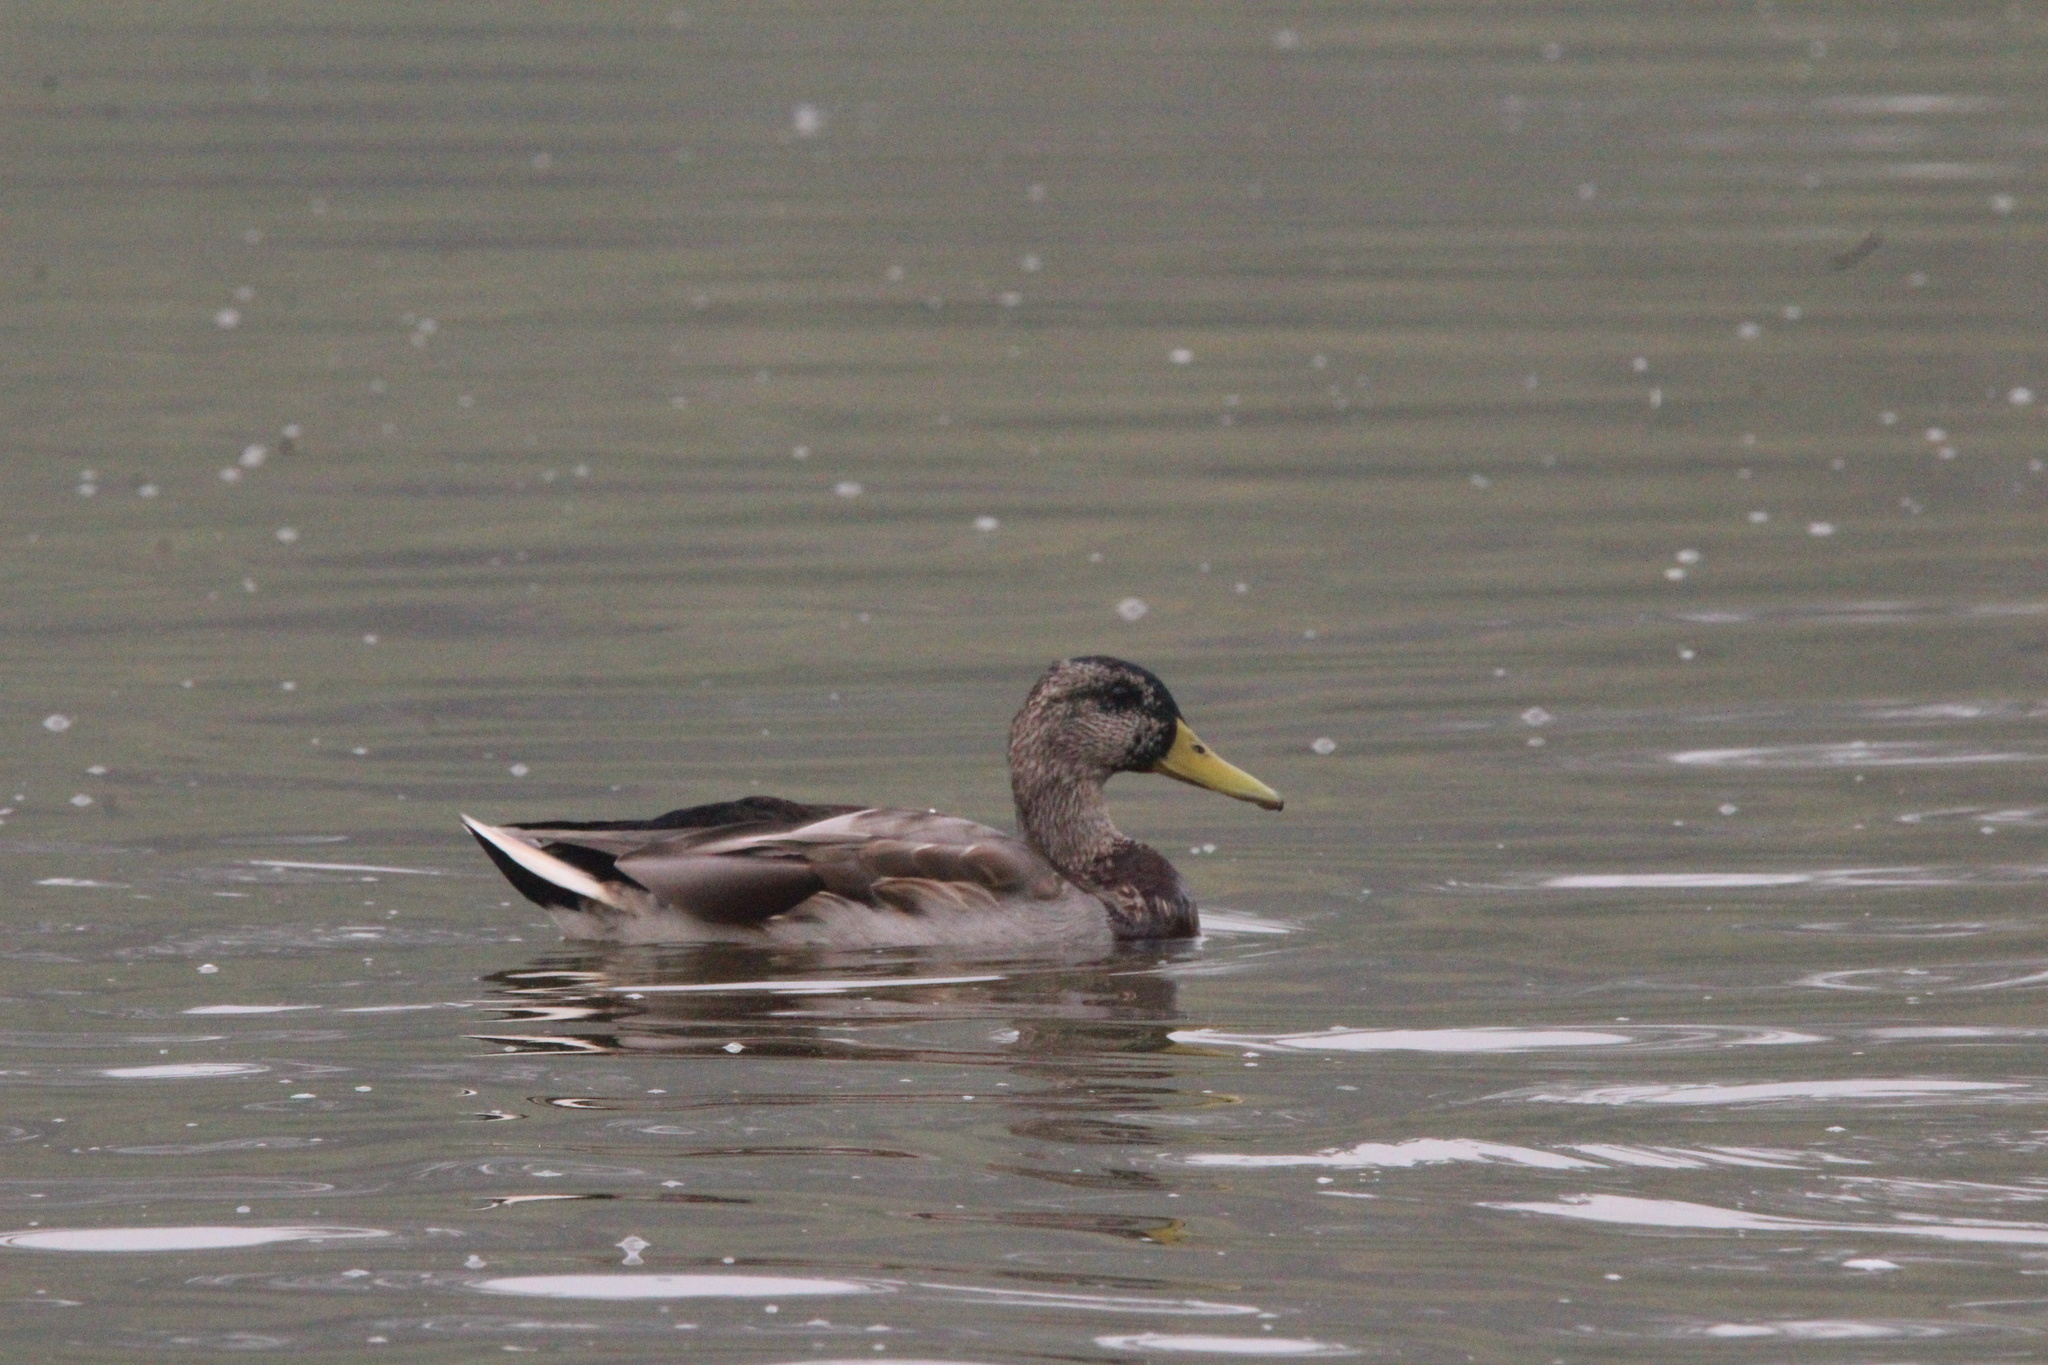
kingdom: Animalia
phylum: Chordata
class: Aves
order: Anseriformes
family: Anatidae
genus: Anas
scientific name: Anas platyrhynchos
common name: Mallard
